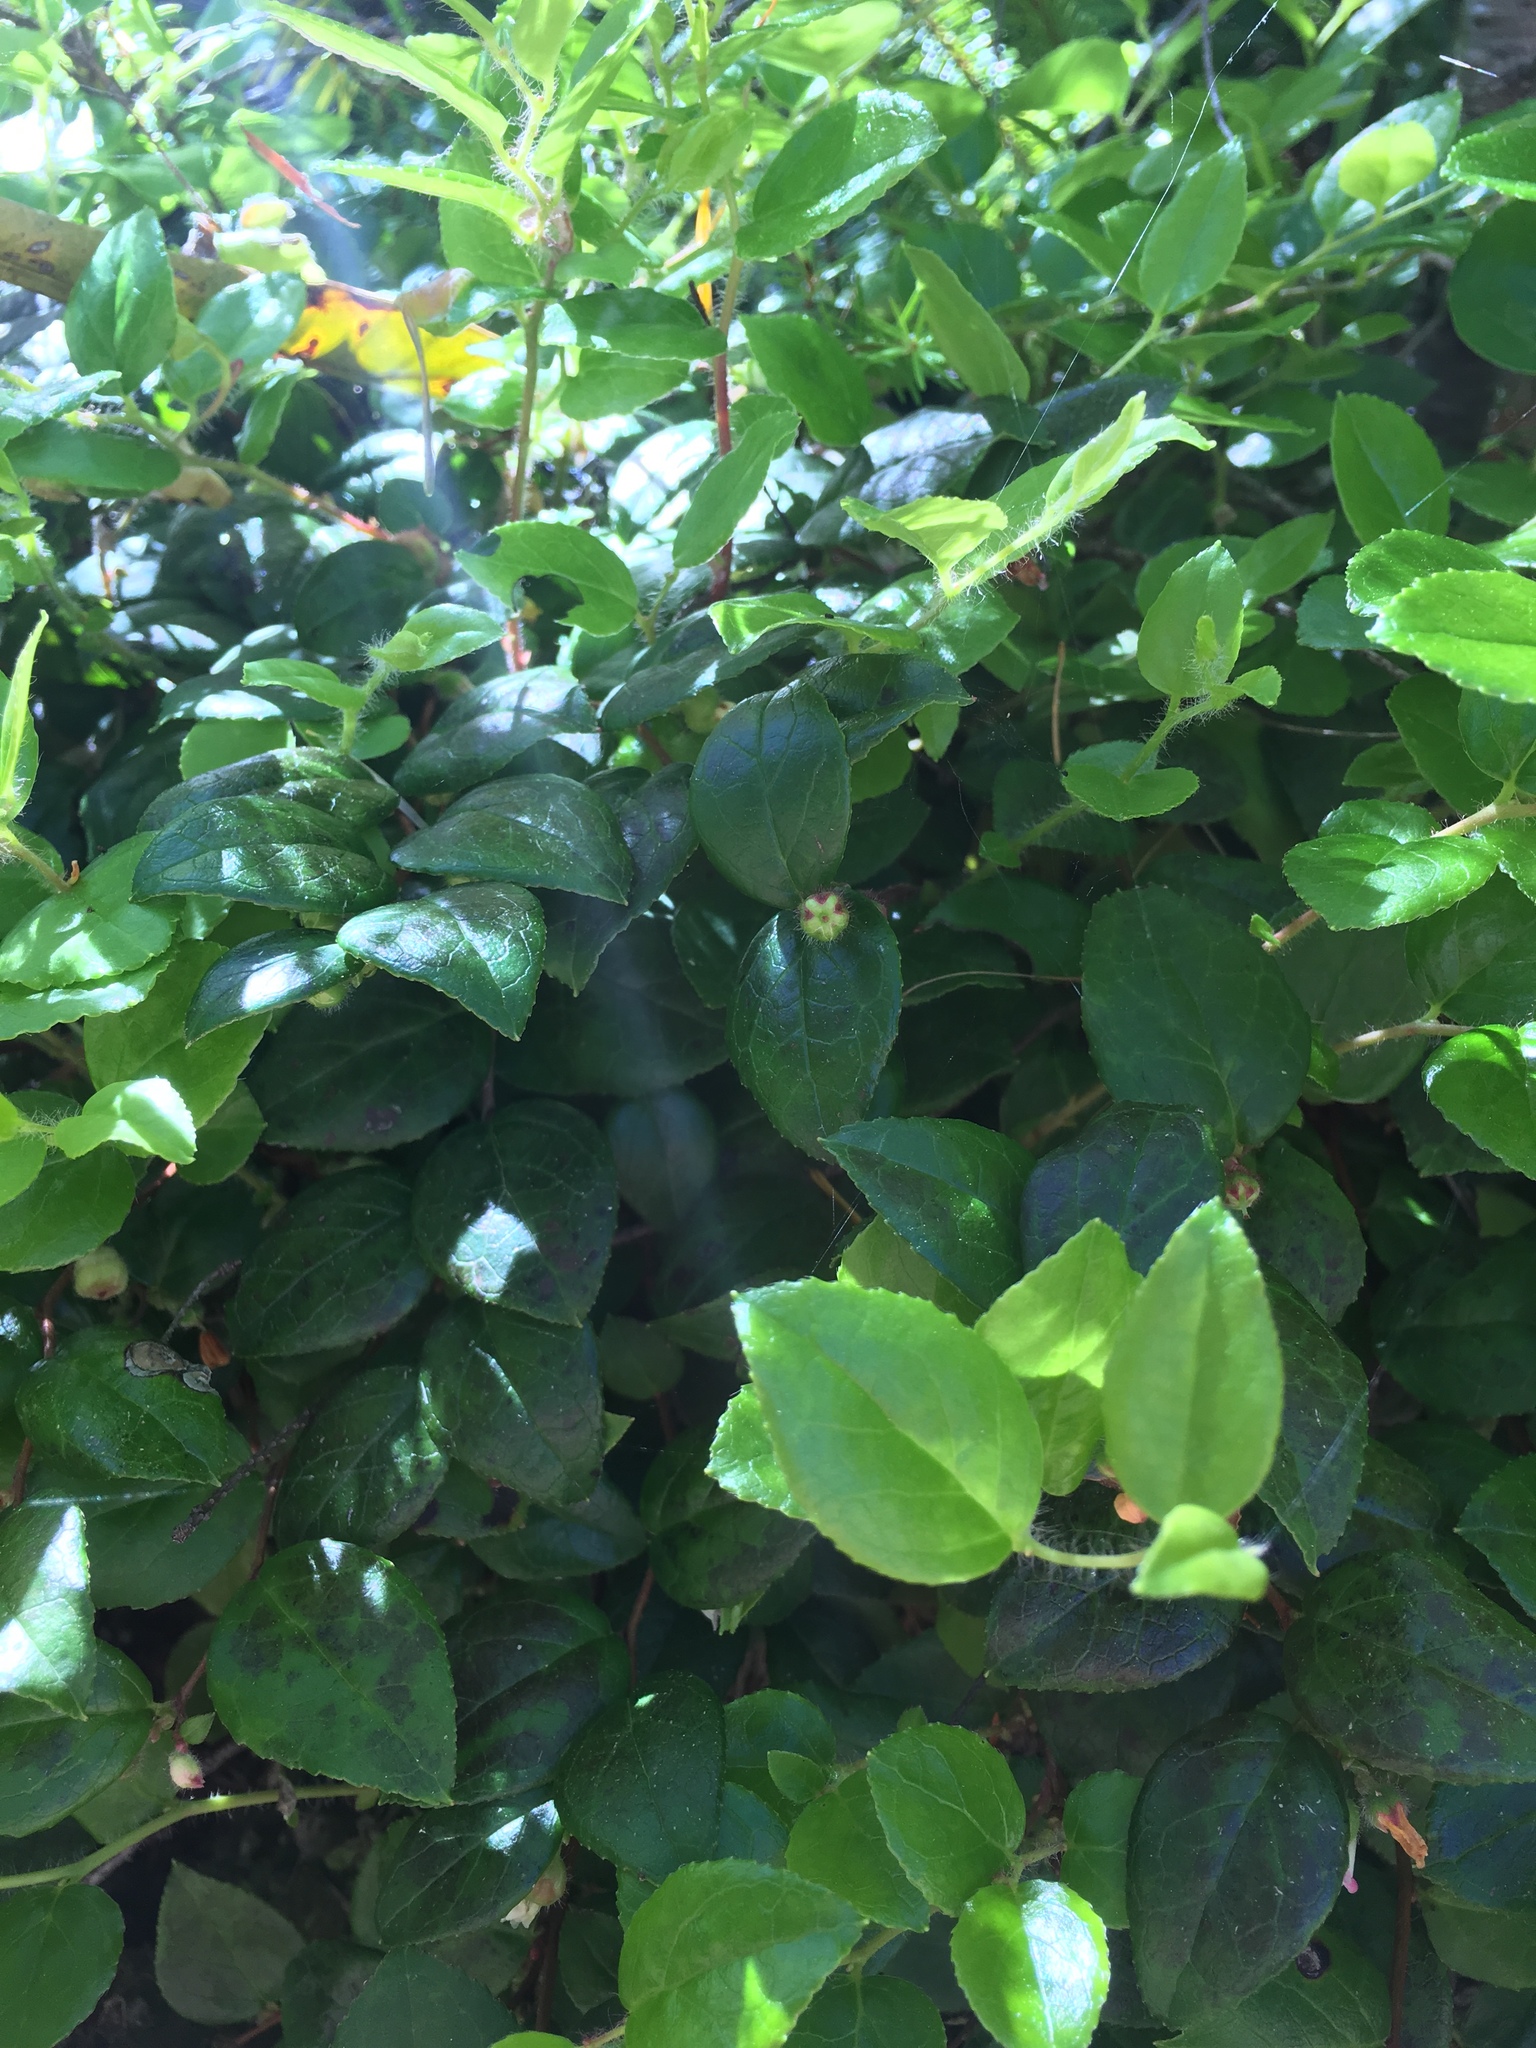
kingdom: Plantae
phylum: Tracheophyta
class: Magnoliopsida
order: Ericales
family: Ericaceae
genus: Gaultheria
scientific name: Gaultheria ovatifolia
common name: Oregon wintergreen
